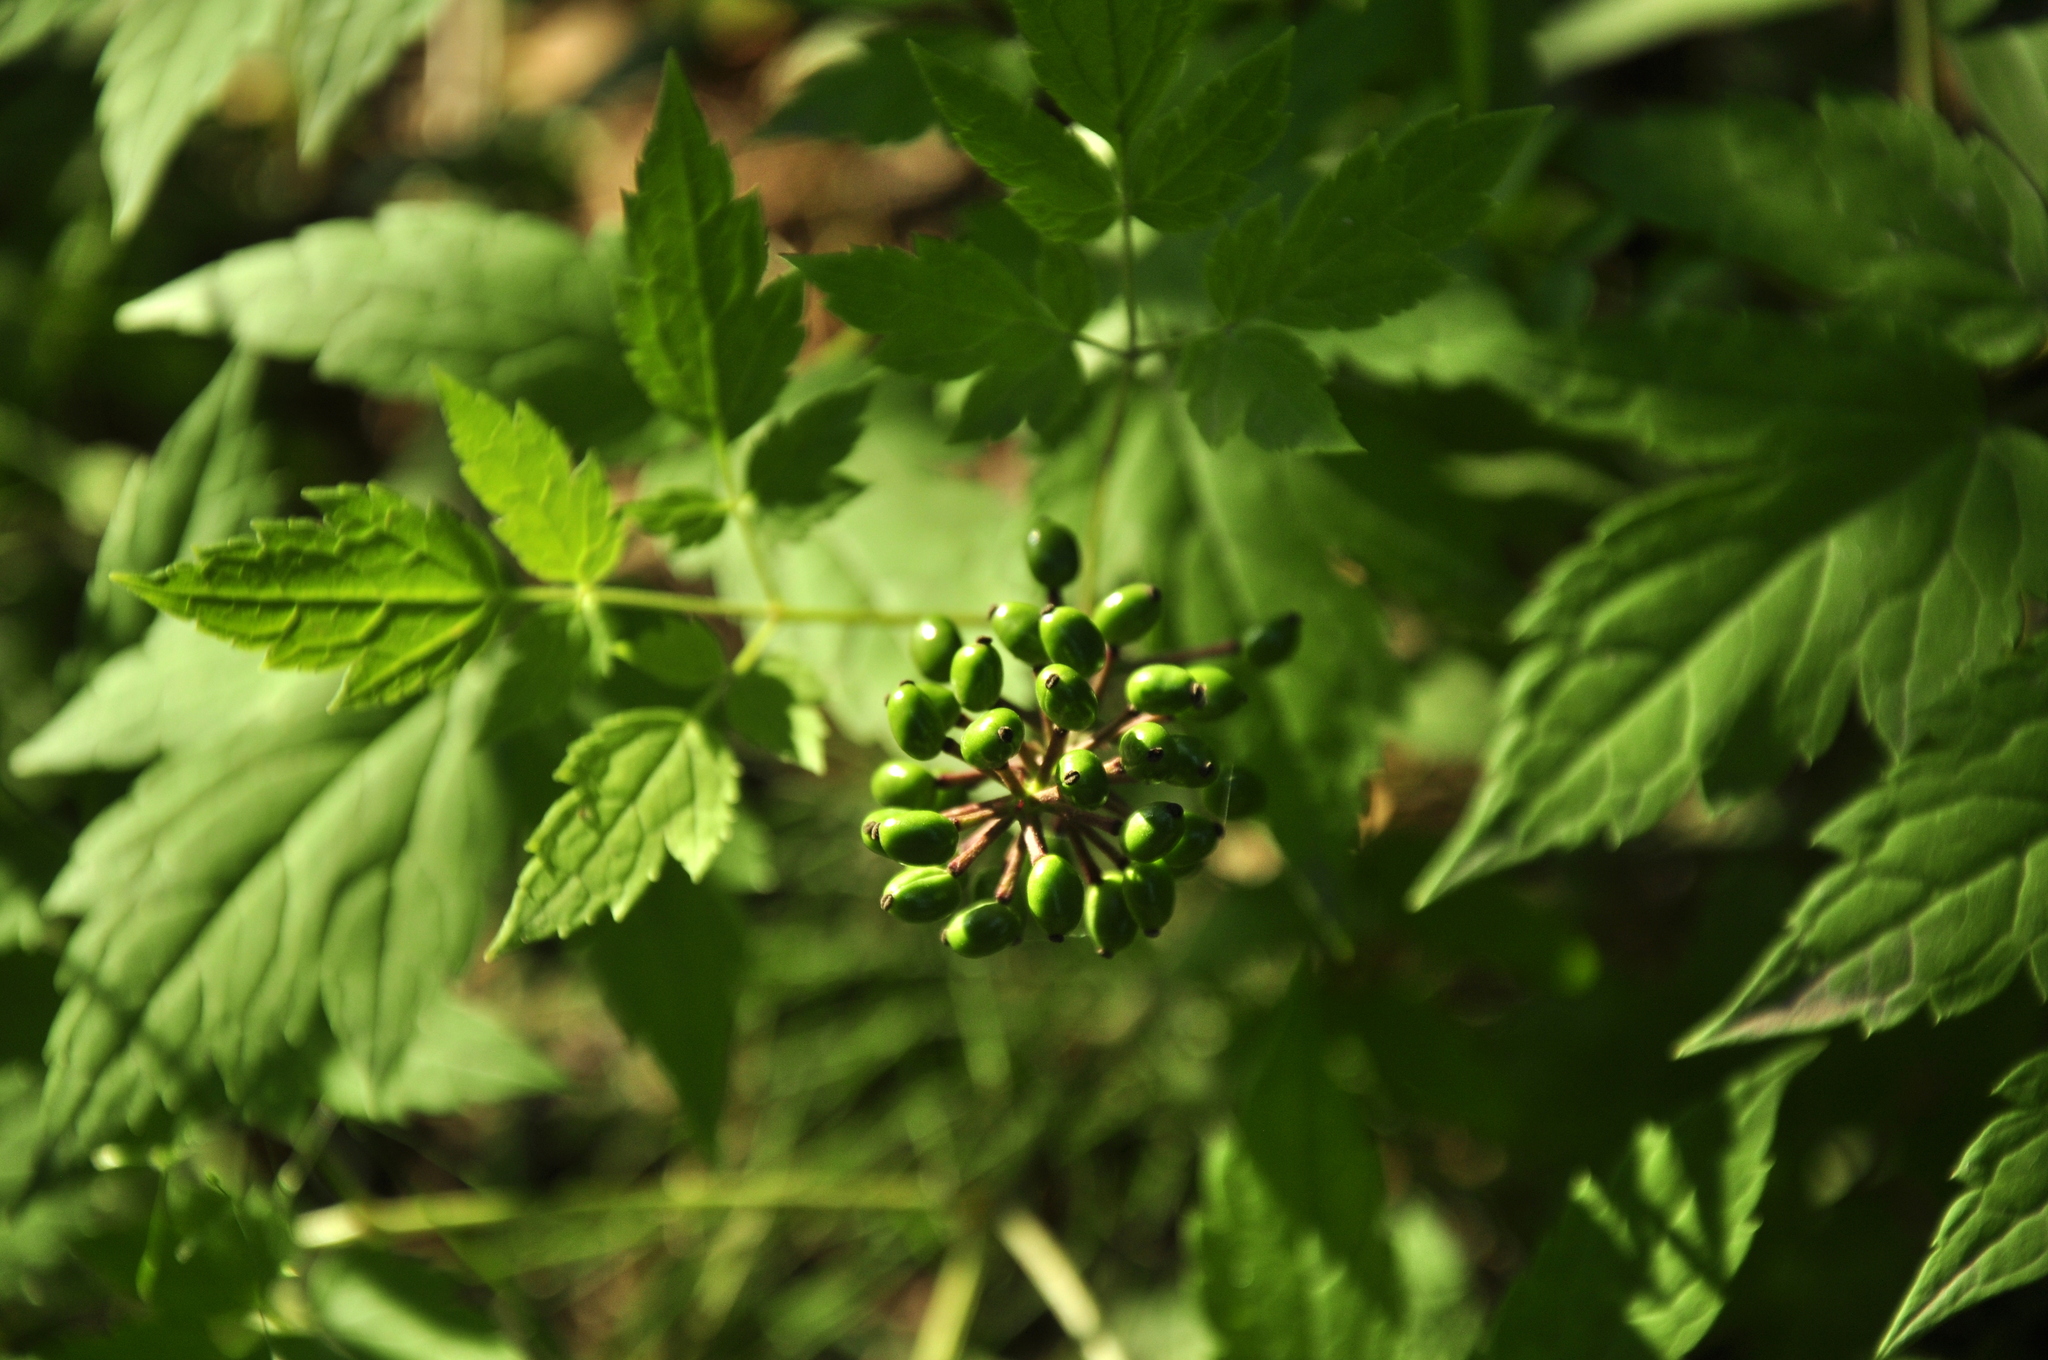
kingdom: Plantae
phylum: Tracheophyta
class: Magnoliopsida
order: Ranunculales
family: Ranunculaceae
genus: Actaea
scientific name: Actaea erythrocarpa
